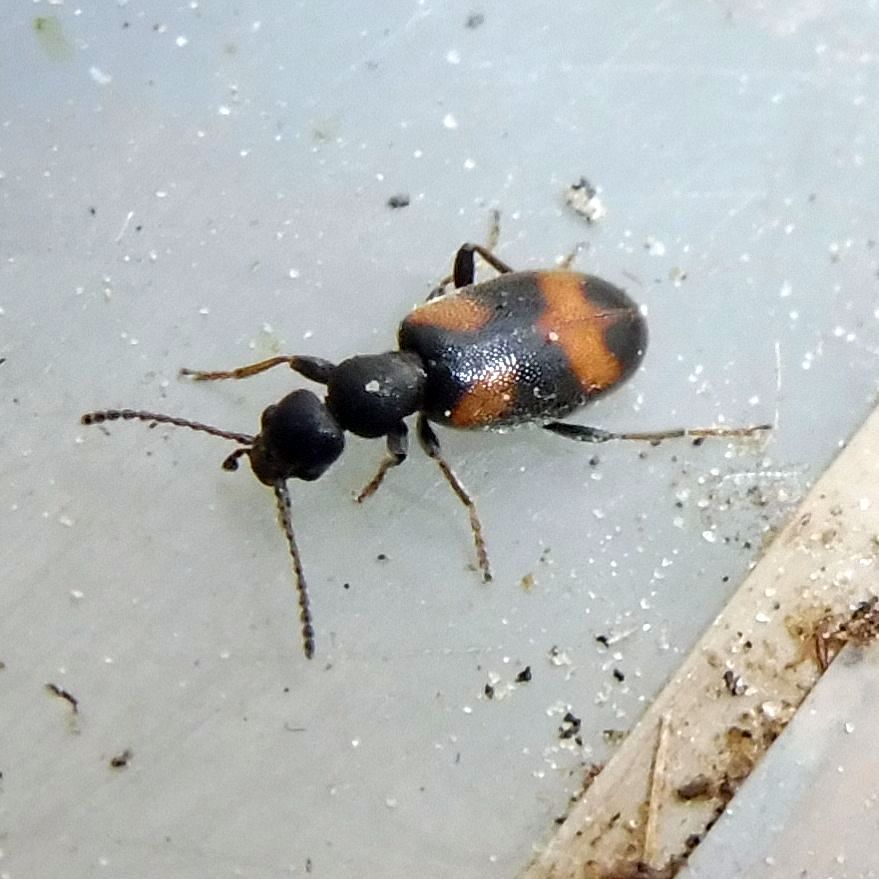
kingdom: Animalia
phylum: Arthropoda
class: Insecta
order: Coleoptera
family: Anthicidae
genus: Anthicus
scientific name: Anthicus antherinus
